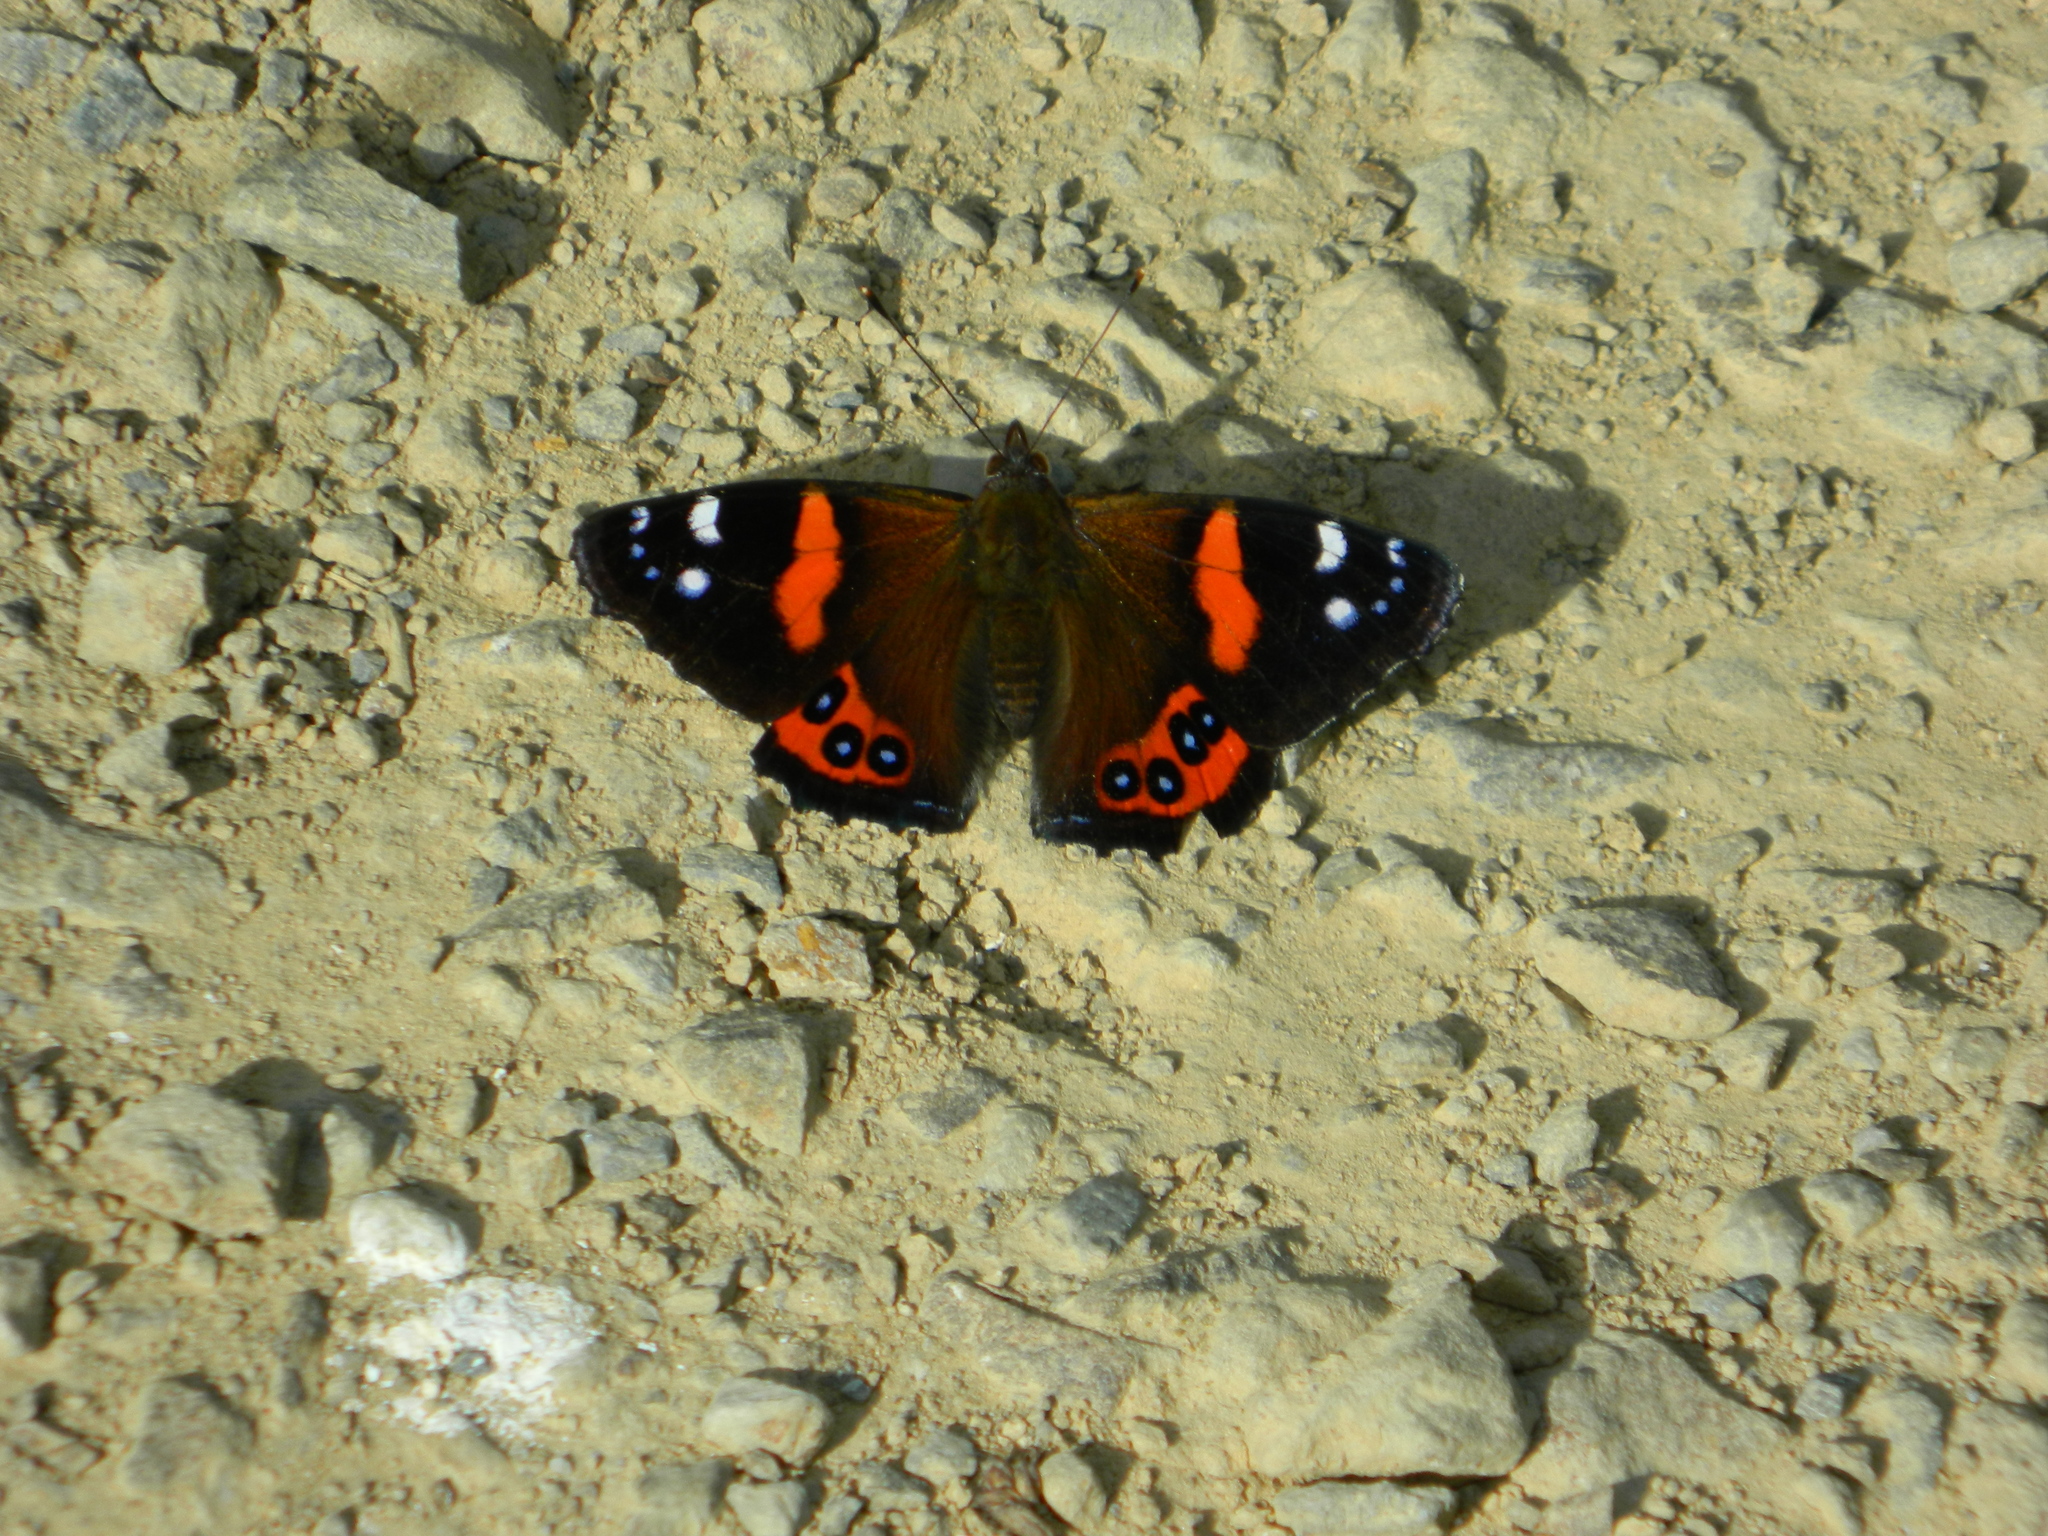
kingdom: Animalia
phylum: Arthropoda
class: Insecta
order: Lepidoptera
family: Nymphalidae
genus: Vanessa
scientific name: Vanessa gonerilla
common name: New zealand red admiral
